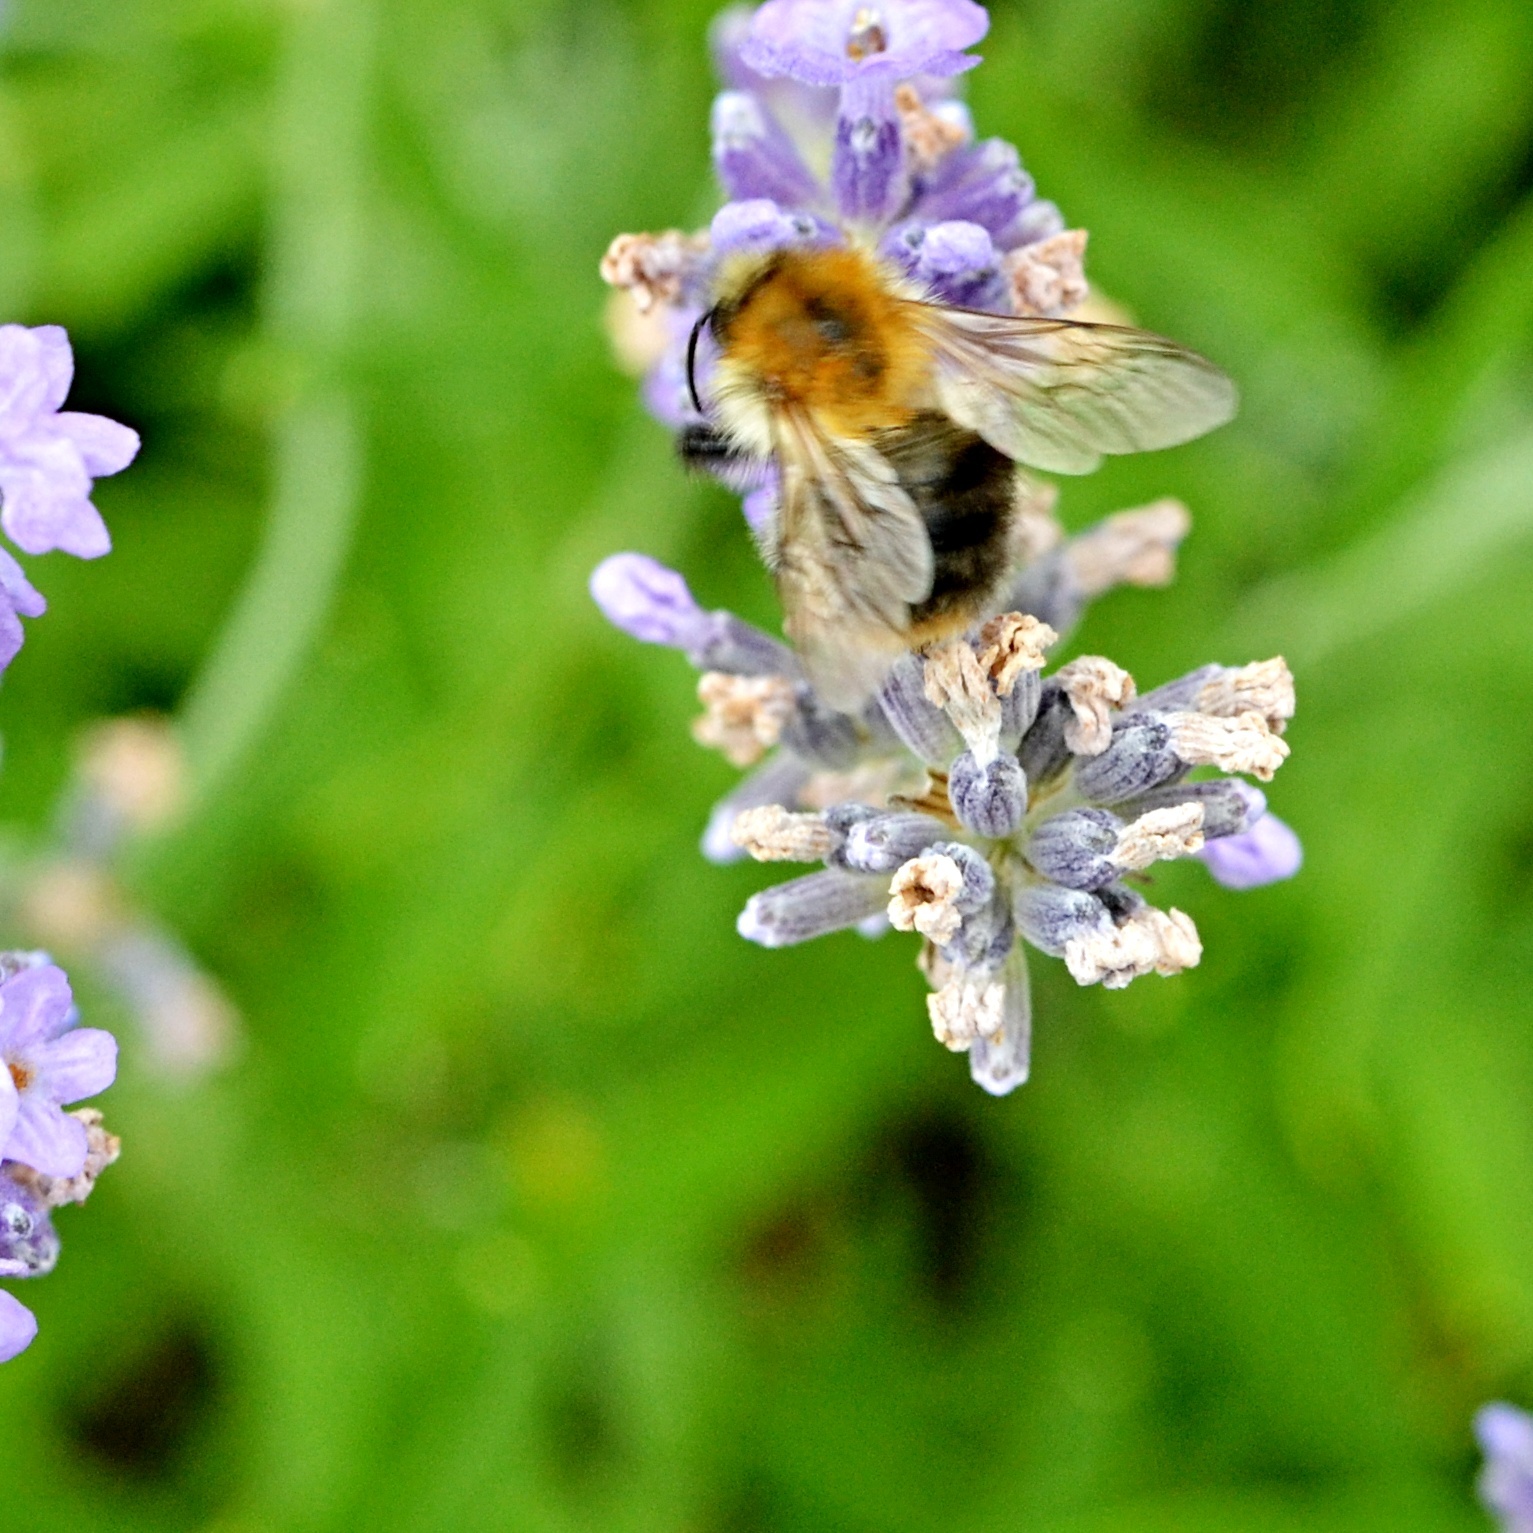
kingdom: Animalia
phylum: Arthropoda
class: Insecta
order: Hymenoptera
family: Apidae
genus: Bombus
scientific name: Bombus pascuorum
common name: Common carder bee
